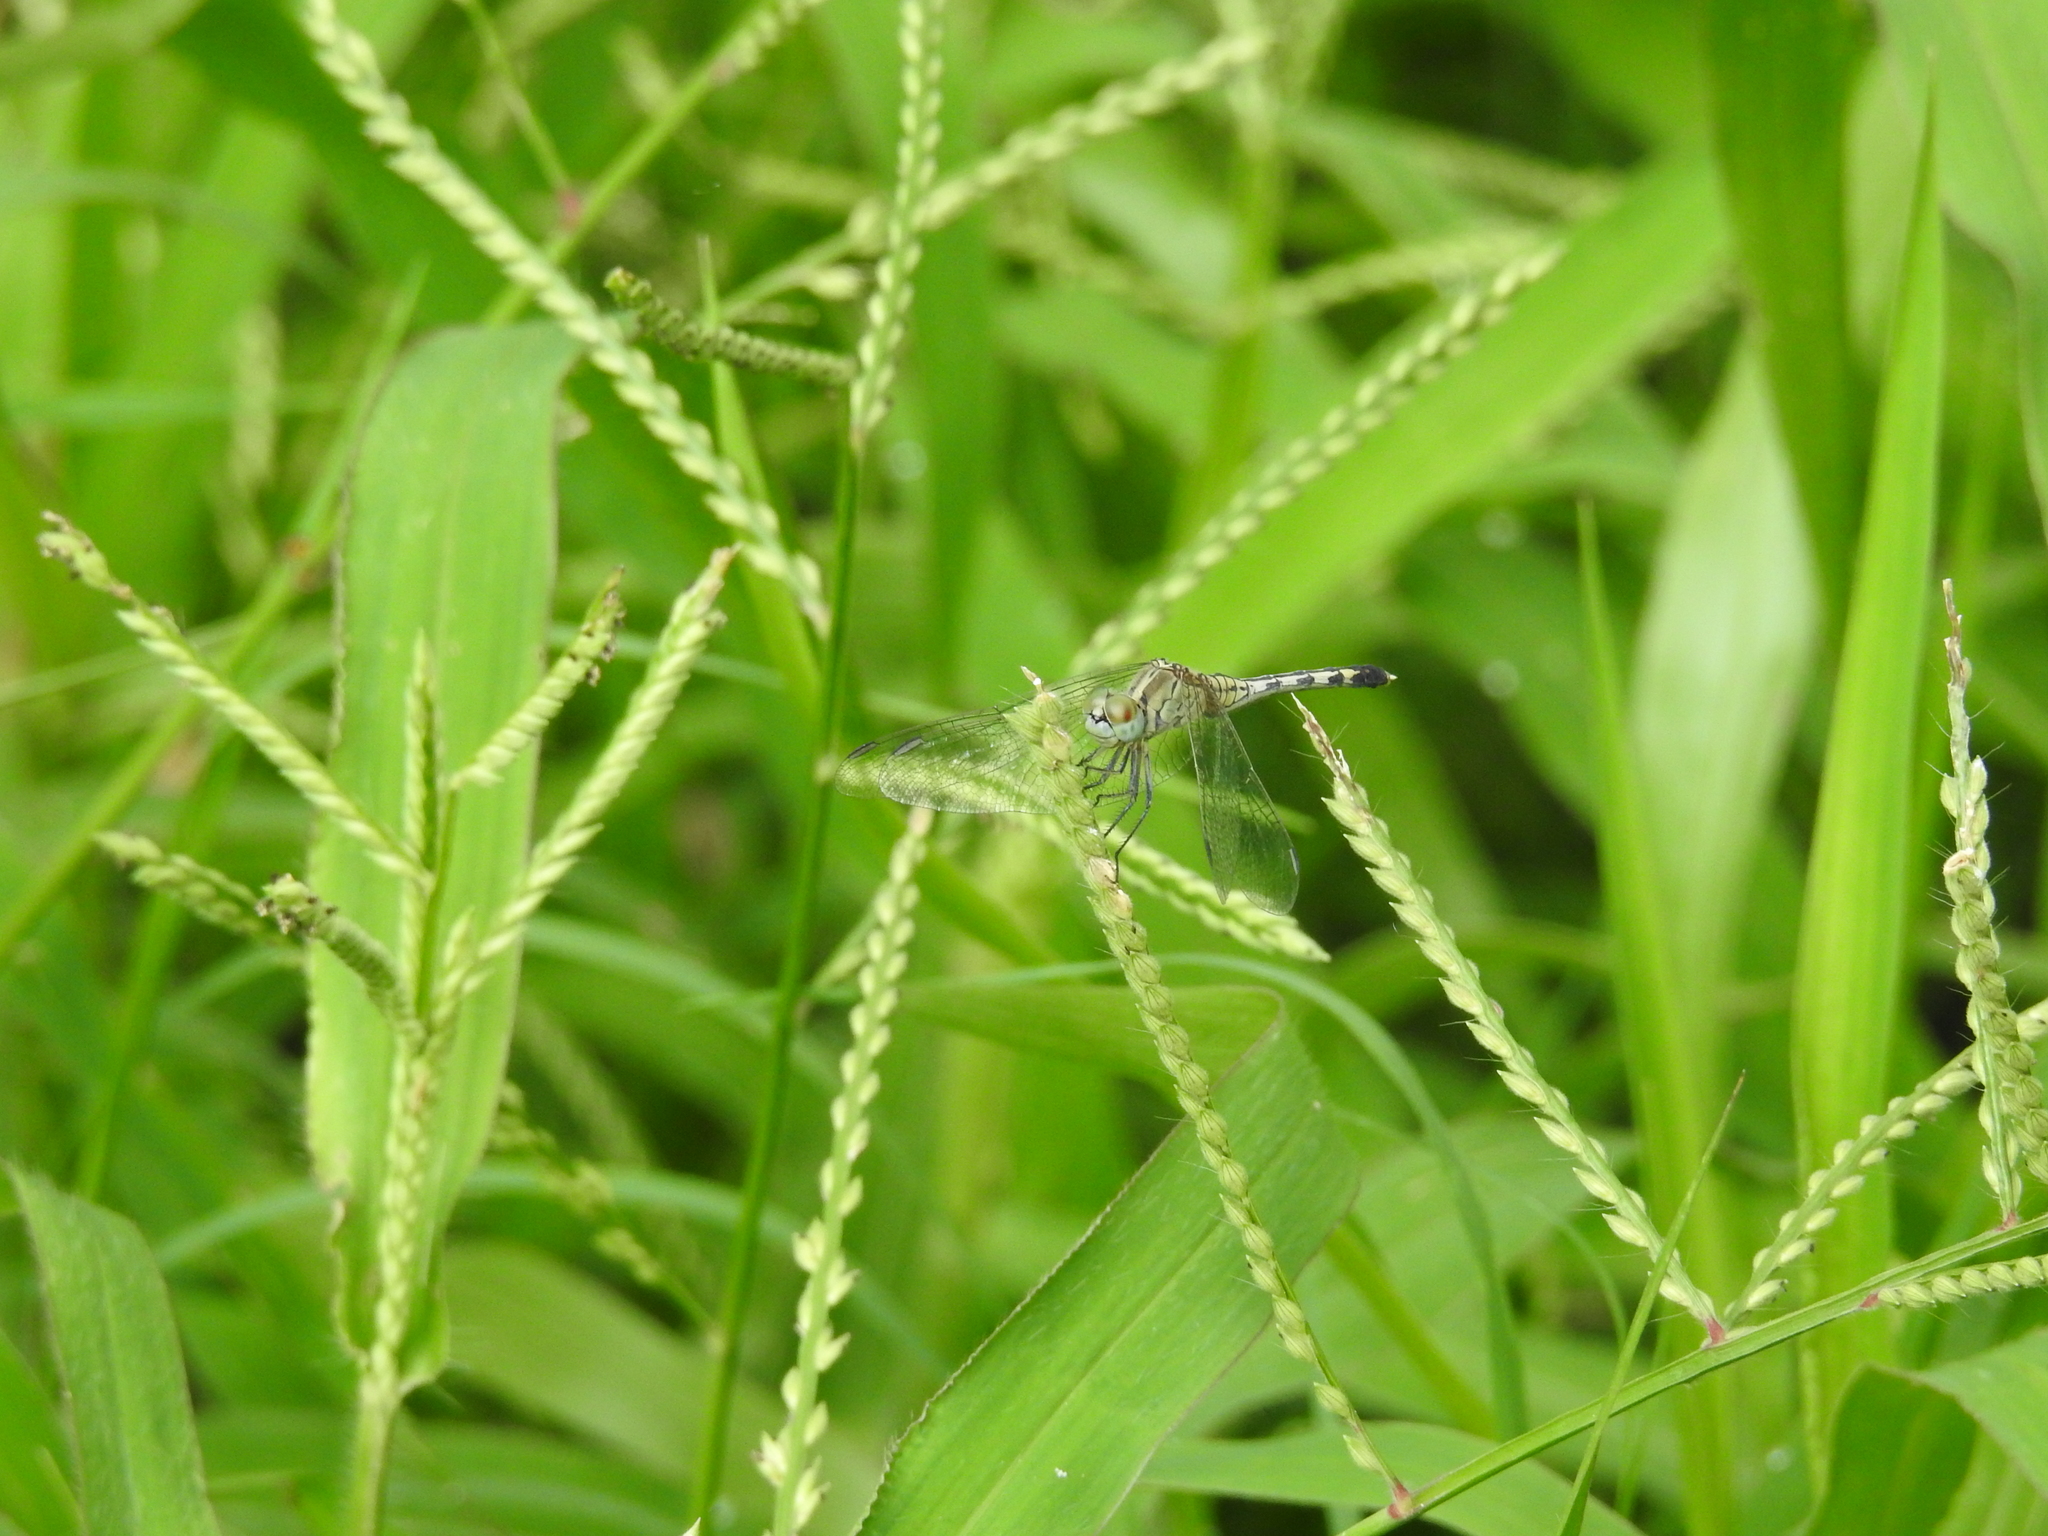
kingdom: Animalia
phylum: Arthropoda
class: Insecta
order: Odonata
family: Libellulidae
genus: Diplacodes
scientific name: Diplacodes trivialis
